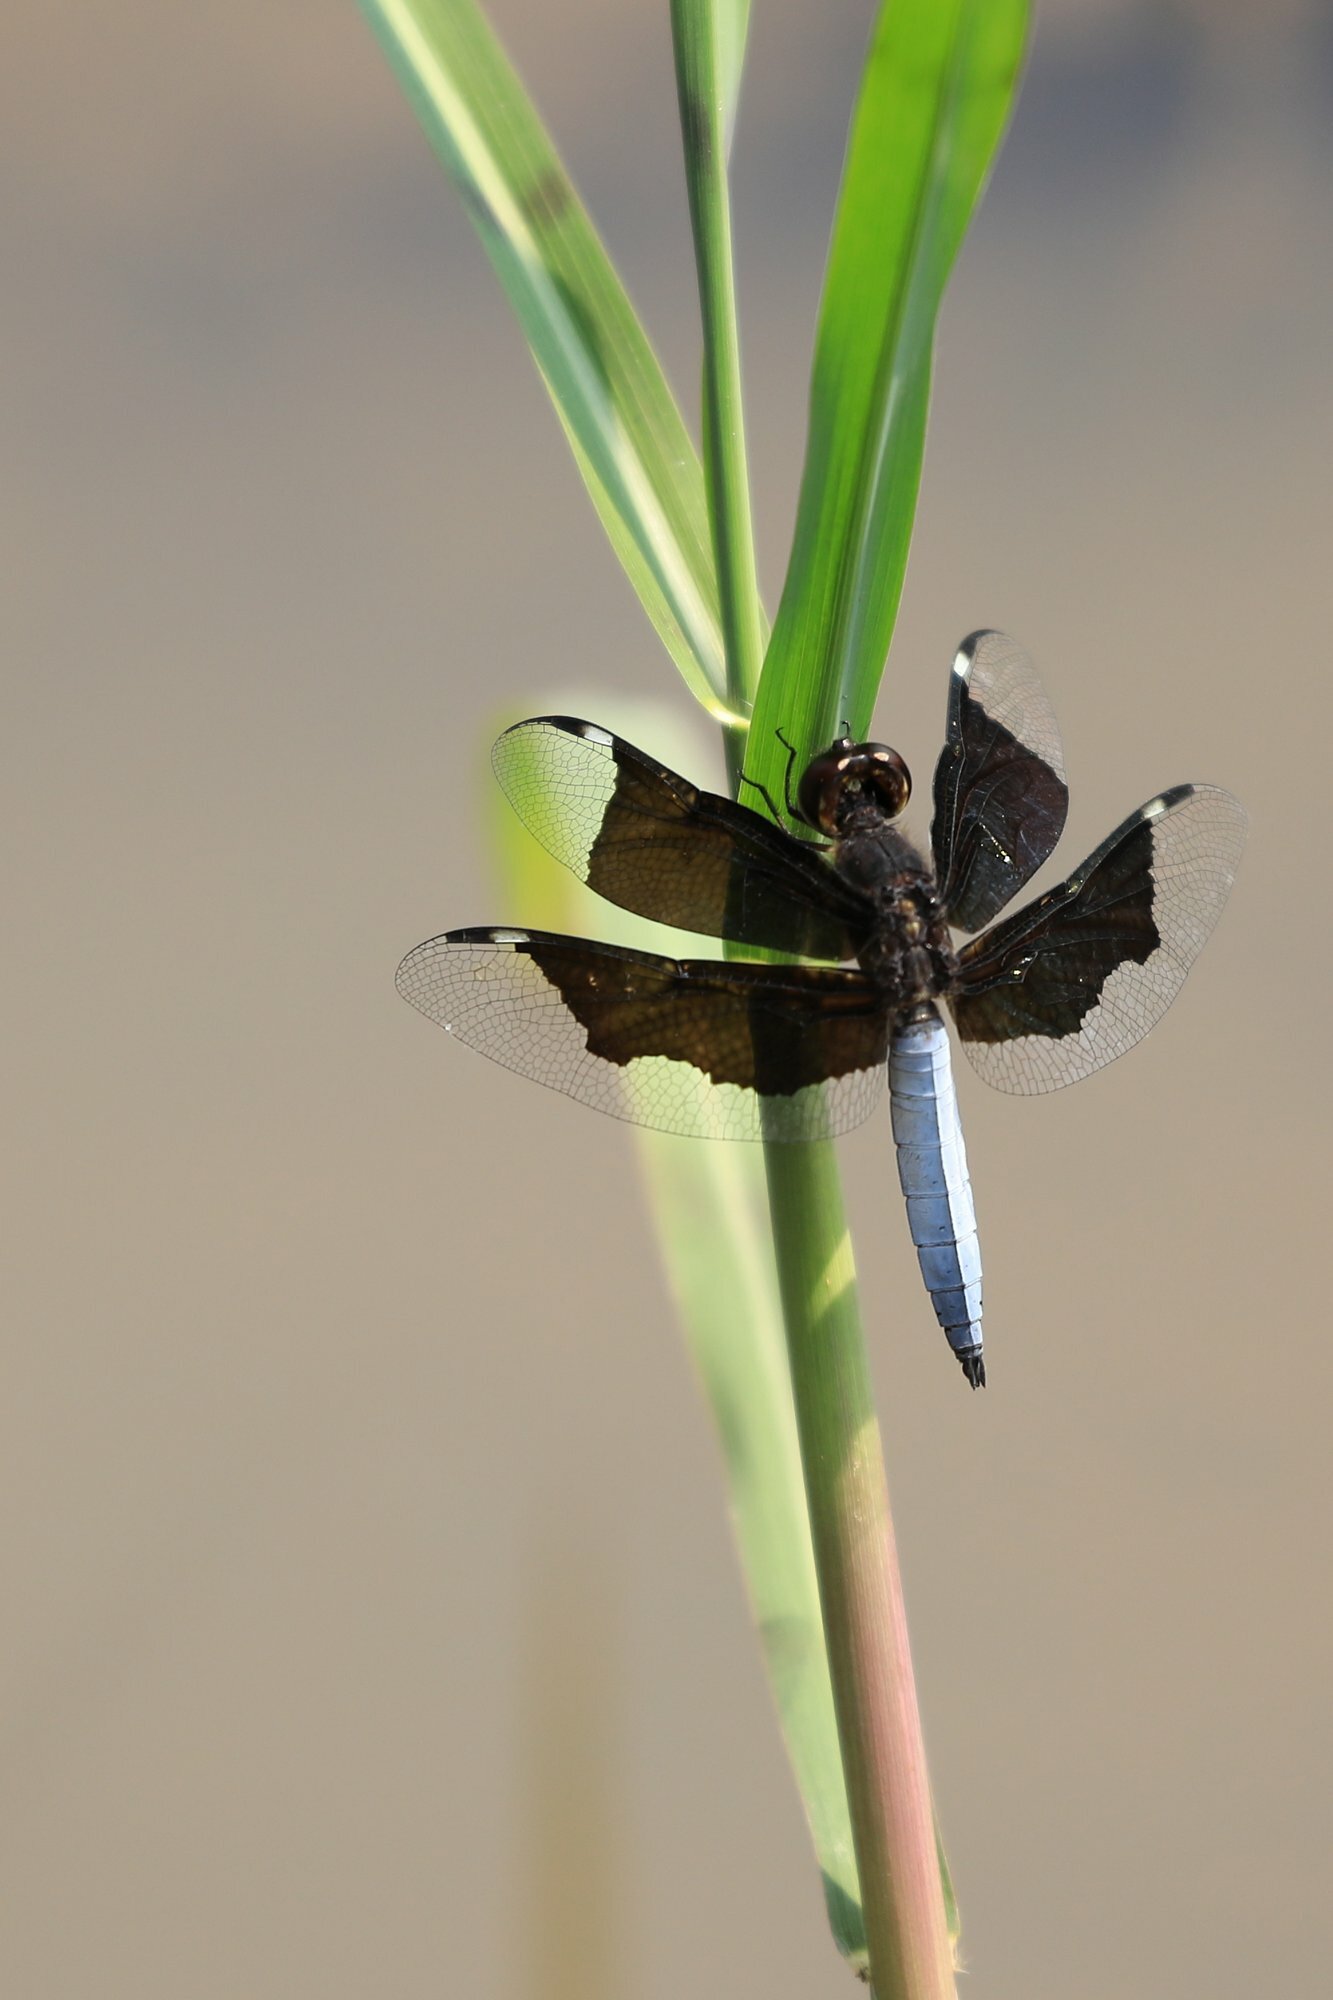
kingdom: Animalia
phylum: Arthropoda
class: Insecta
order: Odonata
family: Libellulidae
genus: Palpopleura
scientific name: Palpopleura lucia
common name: Lucia widow
